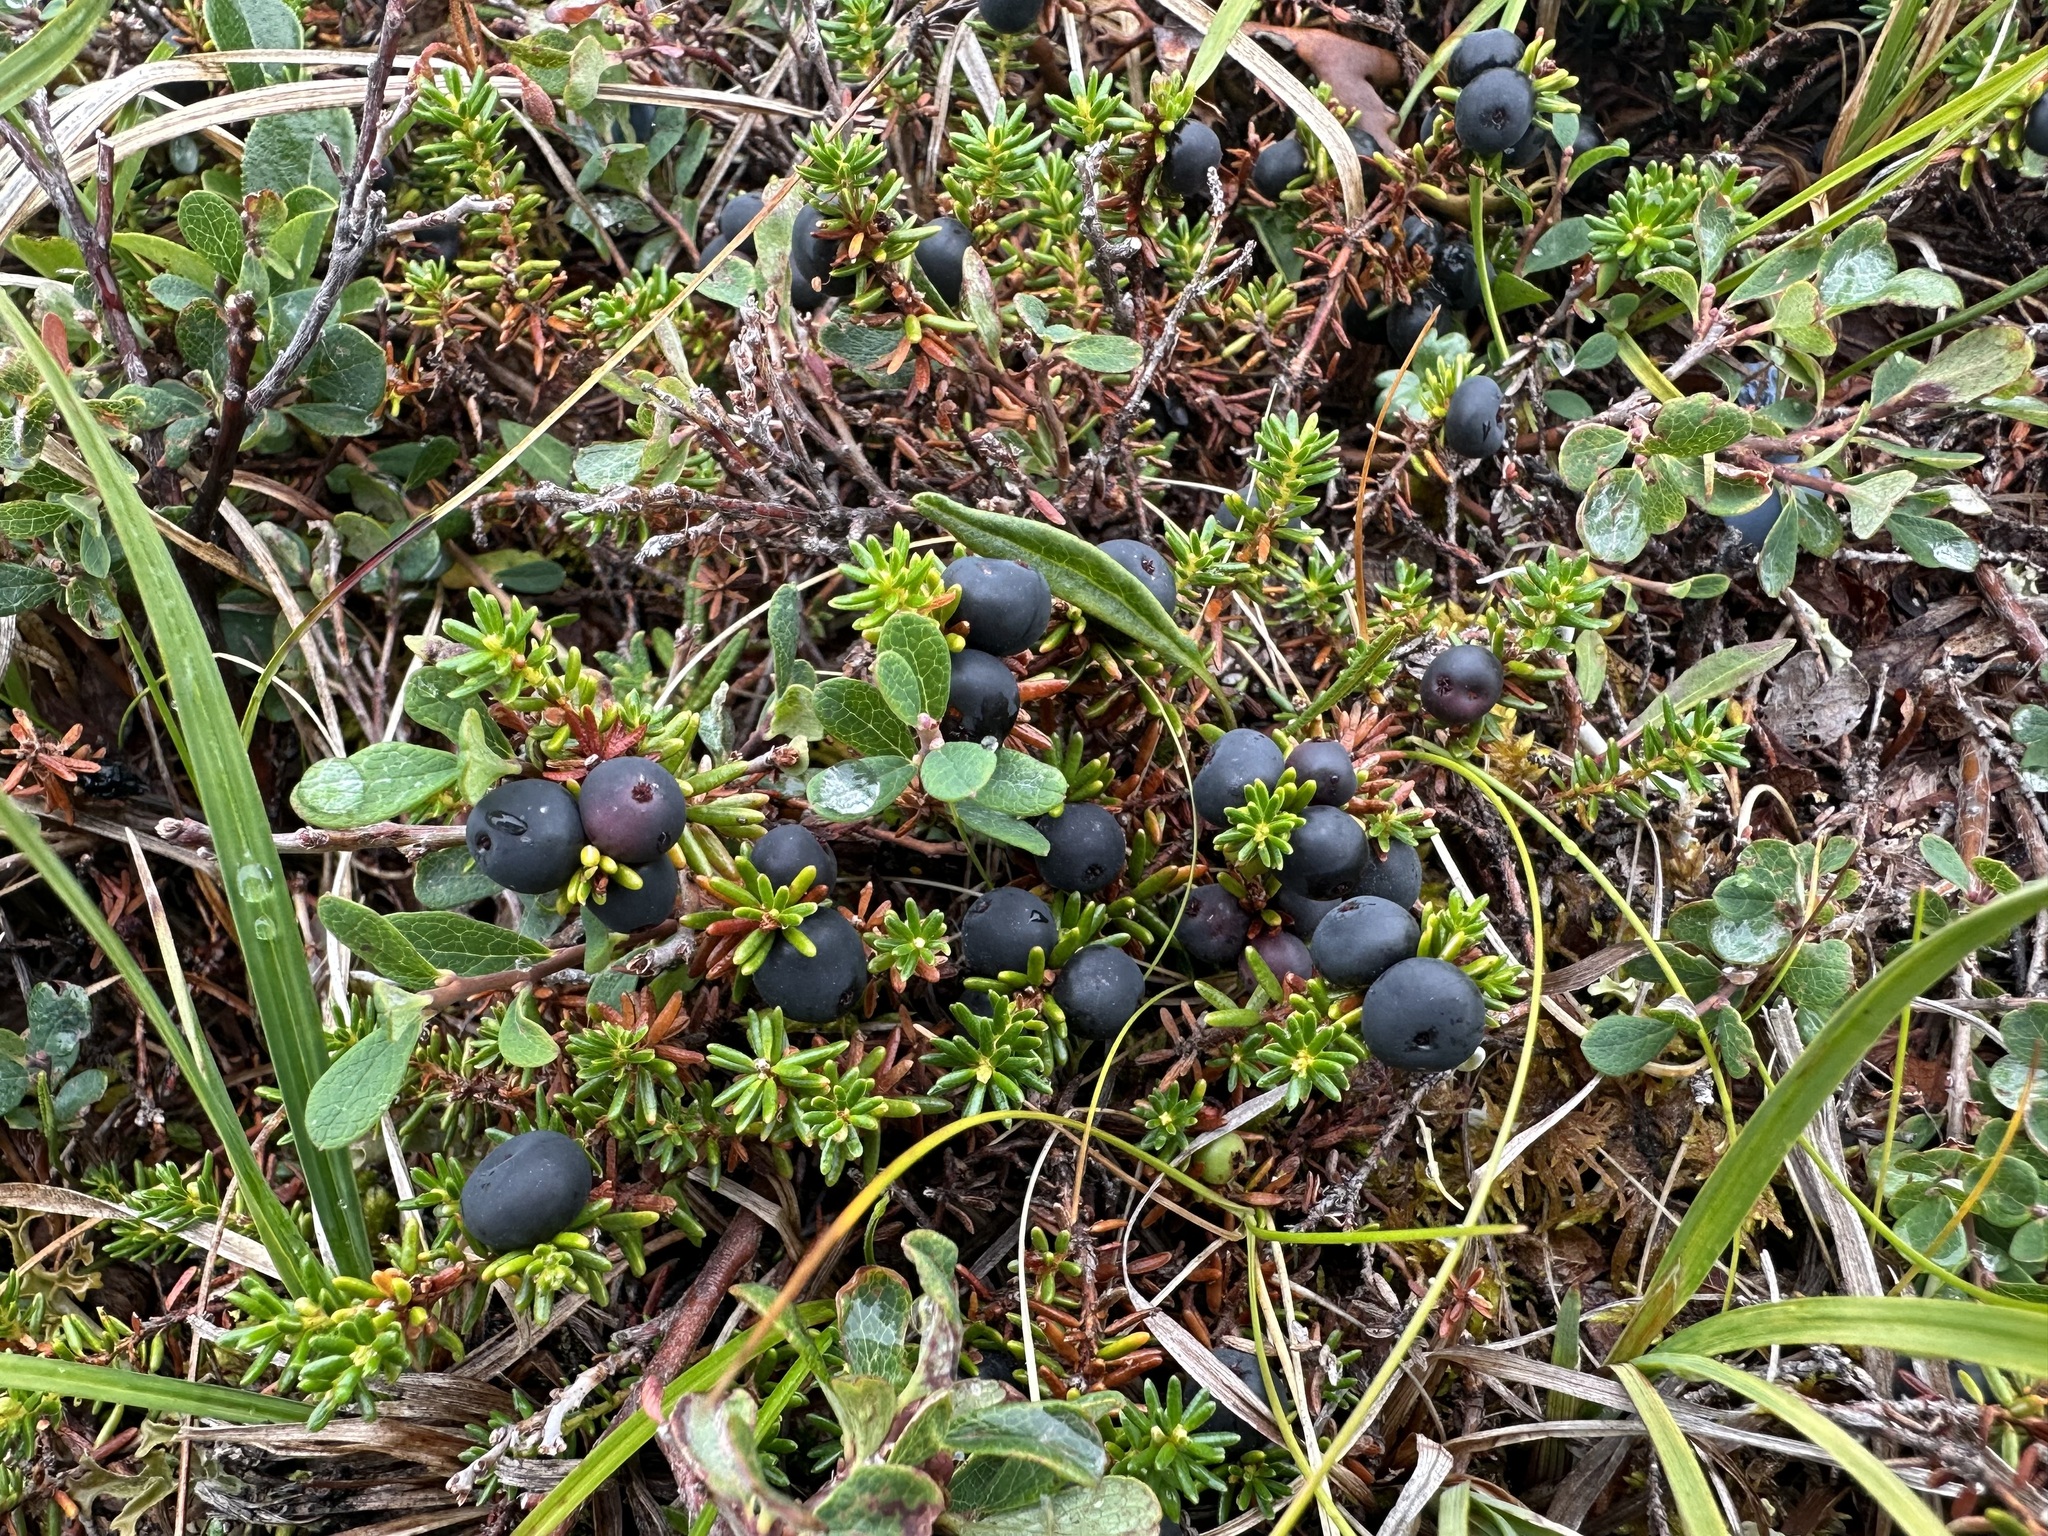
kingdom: Plantae
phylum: Tracheophyta
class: Magnoliopsida
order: Ericales
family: Ericaceae
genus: Empetrum
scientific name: Empetrum nigrum
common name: Black crowberry
